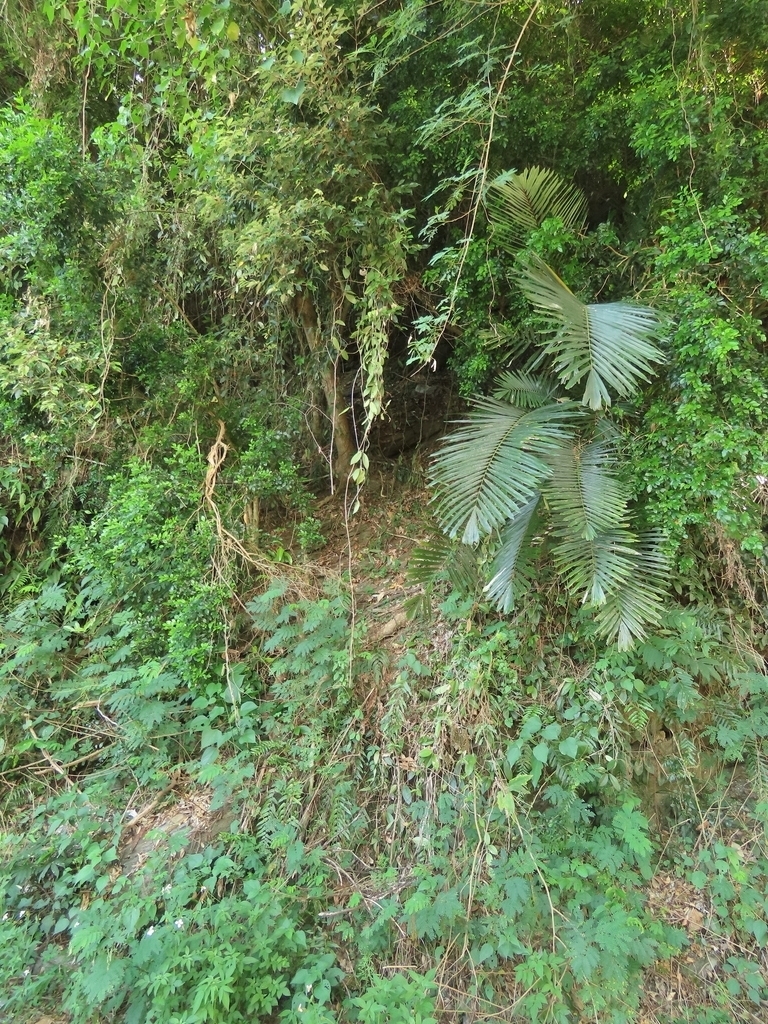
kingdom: Plantae
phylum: Tracheophyta
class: Liliopsida
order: Arecales
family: Arecaceae
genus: Arenga
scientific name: Arenga engleri
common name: Formosan sugar palm
